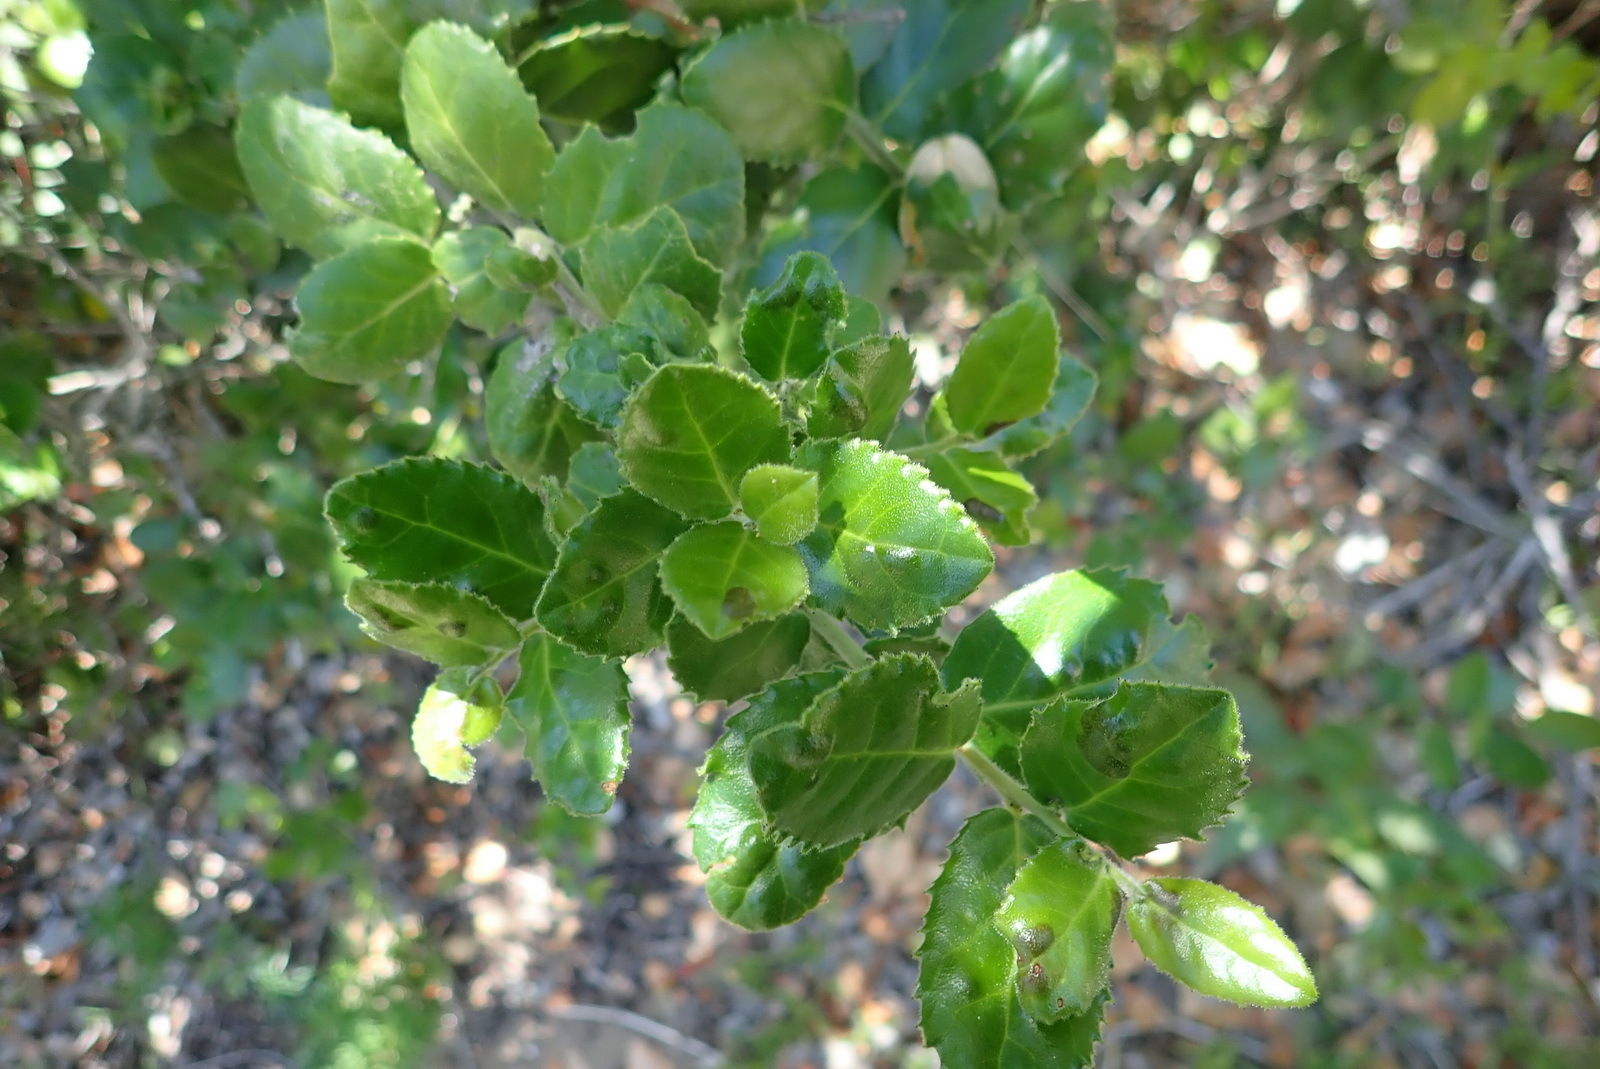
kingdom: Plantae
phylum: Tracheophyta
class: Magnoliopsida
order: Celastrales
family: Celastraceae
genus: Mystroxylon
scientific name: Mystroxylon aethiopicum
